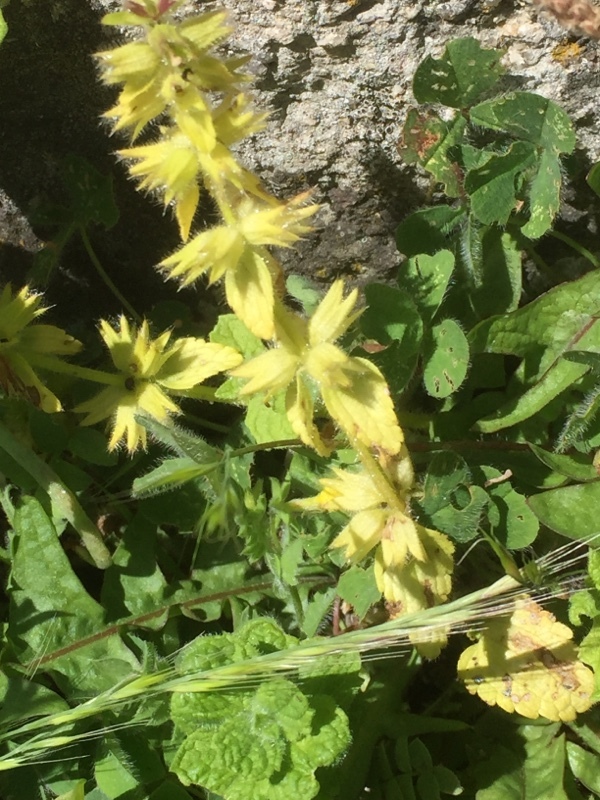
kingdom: Plantae
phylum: Tracheophyta
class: Magnoliopsida
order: Lamiales
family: Lamiaceae
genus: Stachys
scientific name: Stachys arvensis
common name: Field woundwort
